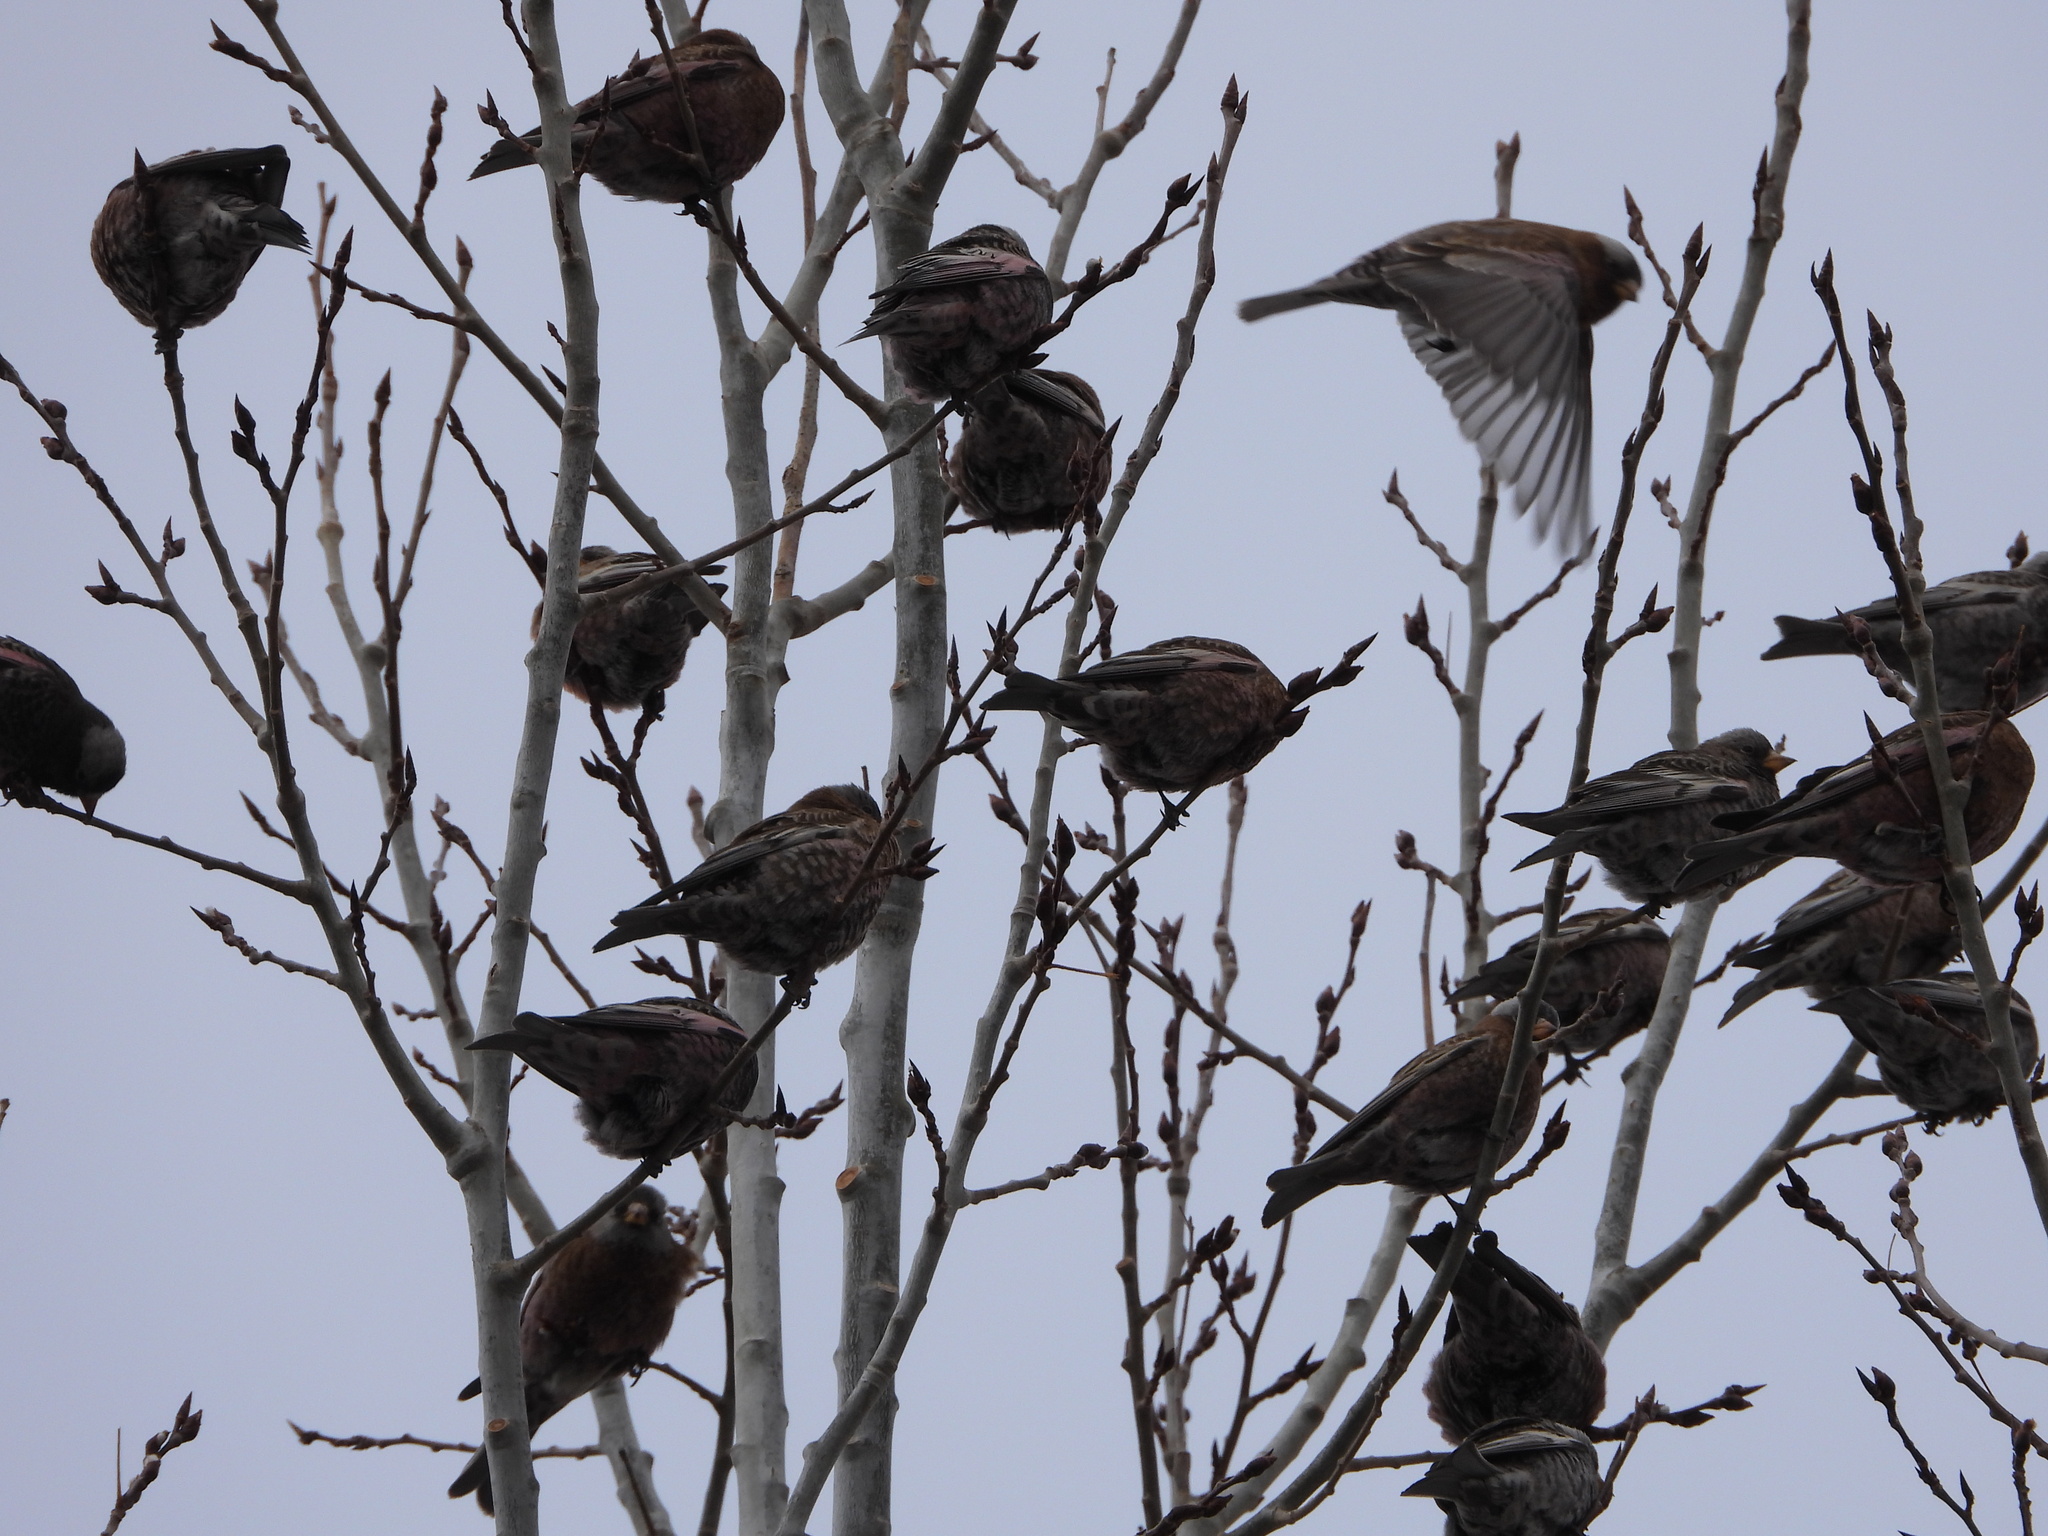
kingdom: Animalia
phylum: Chordata
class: Aves
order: Passeriformes
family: Fringillidae
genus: Leucosticte
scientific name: Leucosticte atrata
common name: Black rosy-finch
